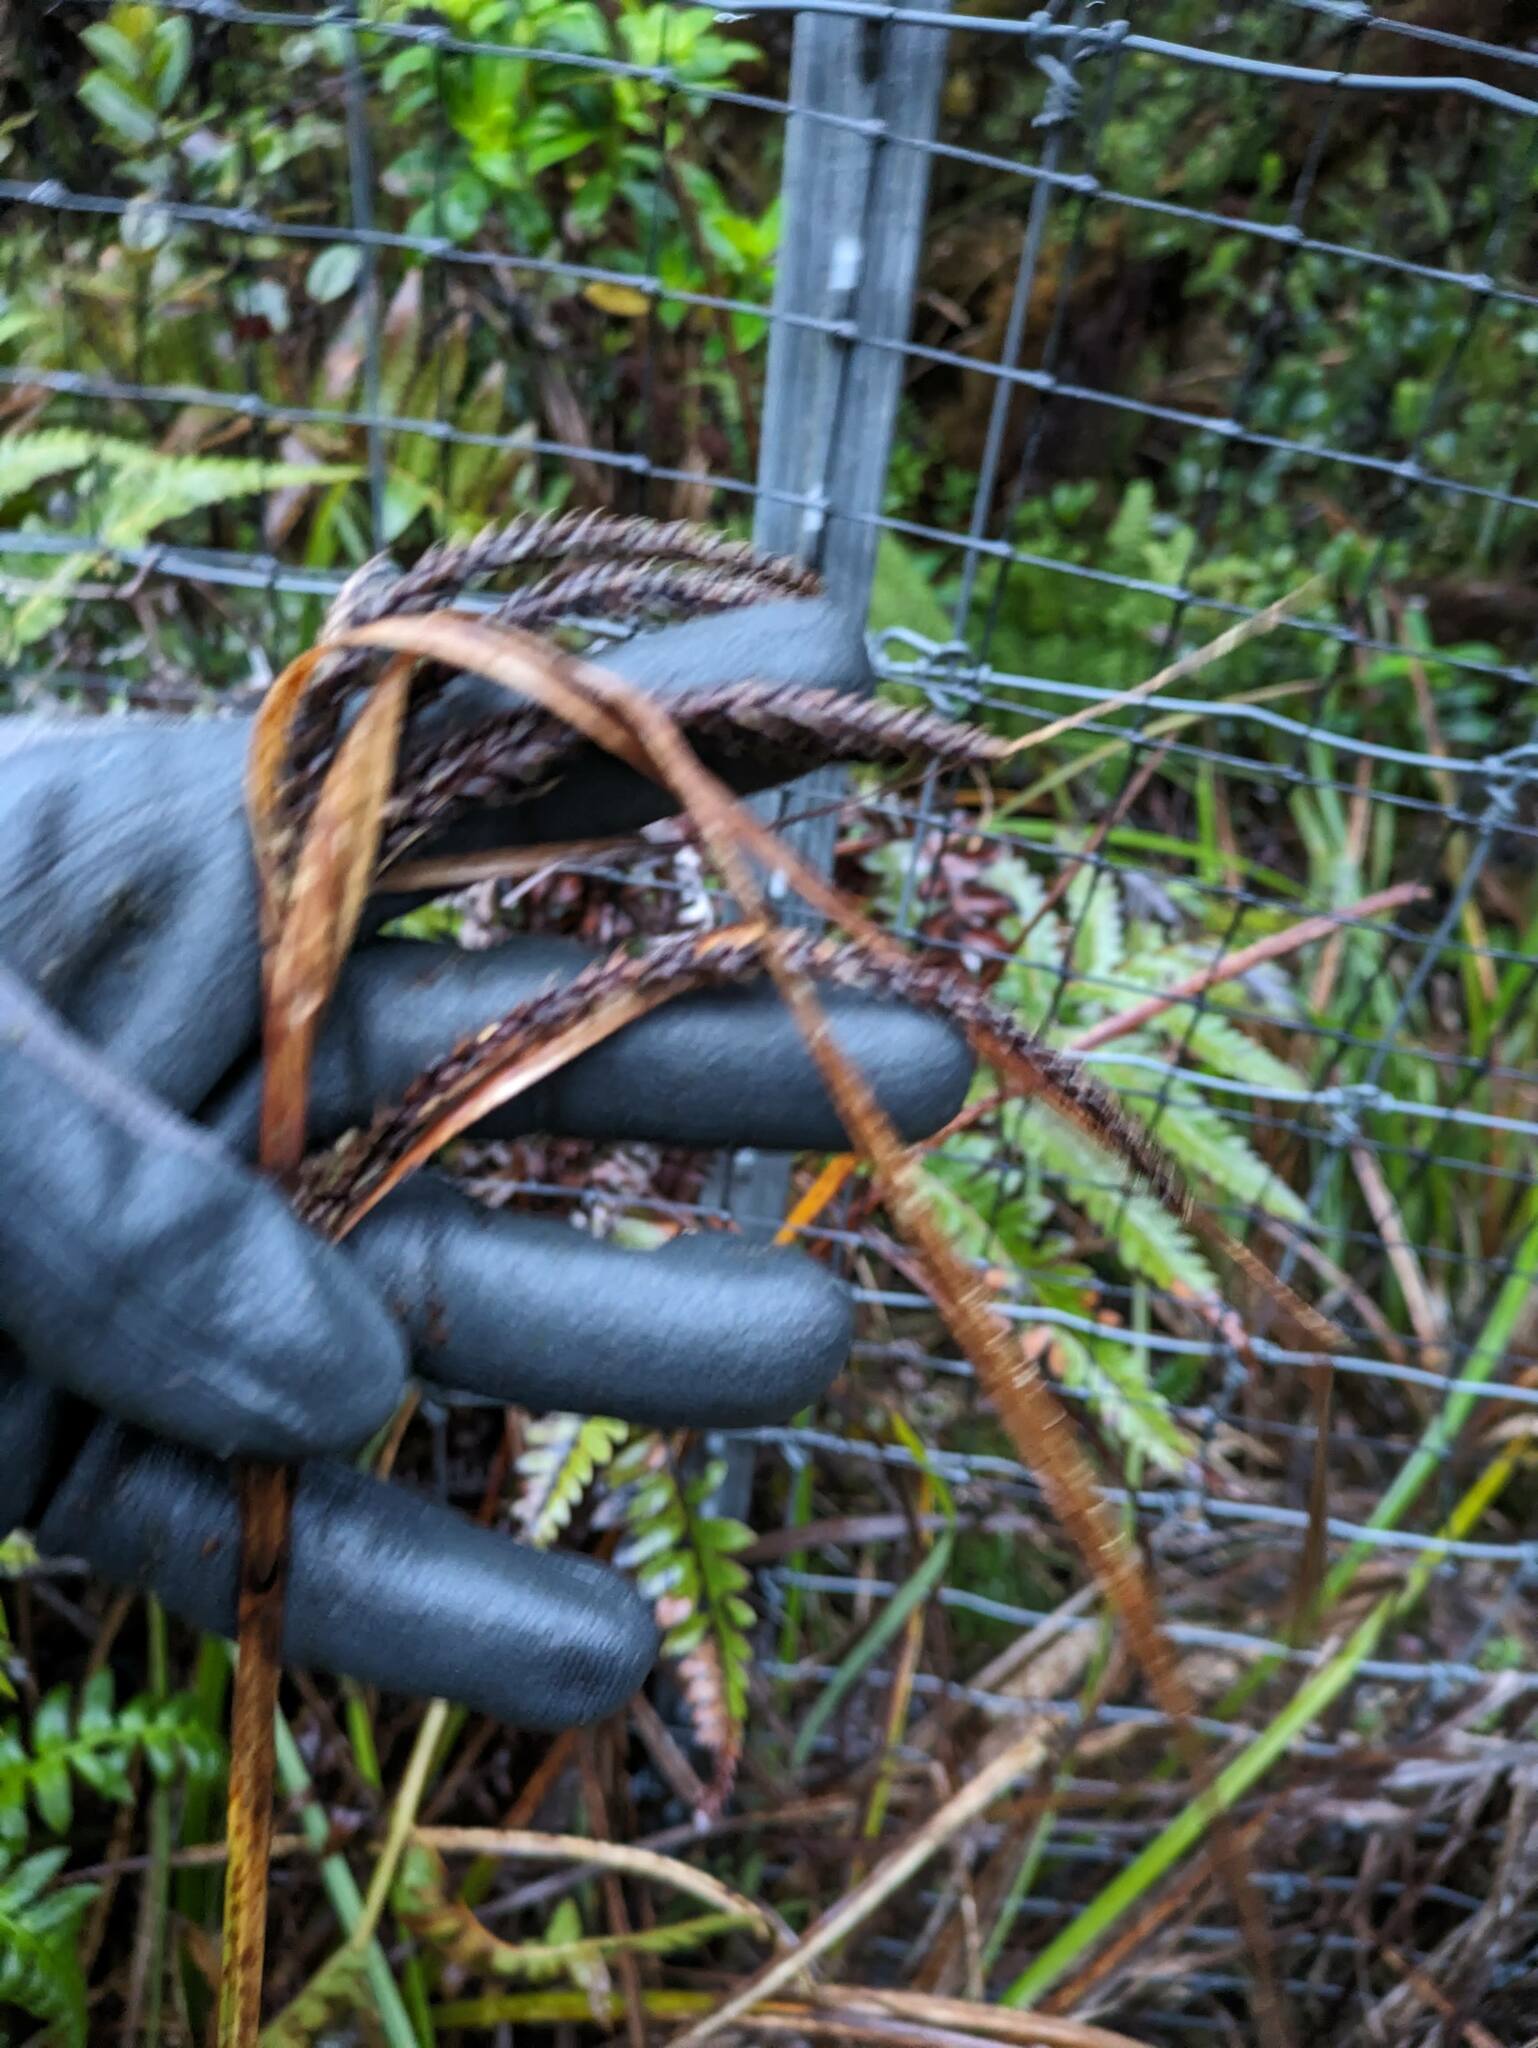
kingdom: Plantae
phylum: Tracheophyta
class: Liliopsida
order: Poales
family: Cyperaceae
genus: Carex
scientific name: Carex alligata
